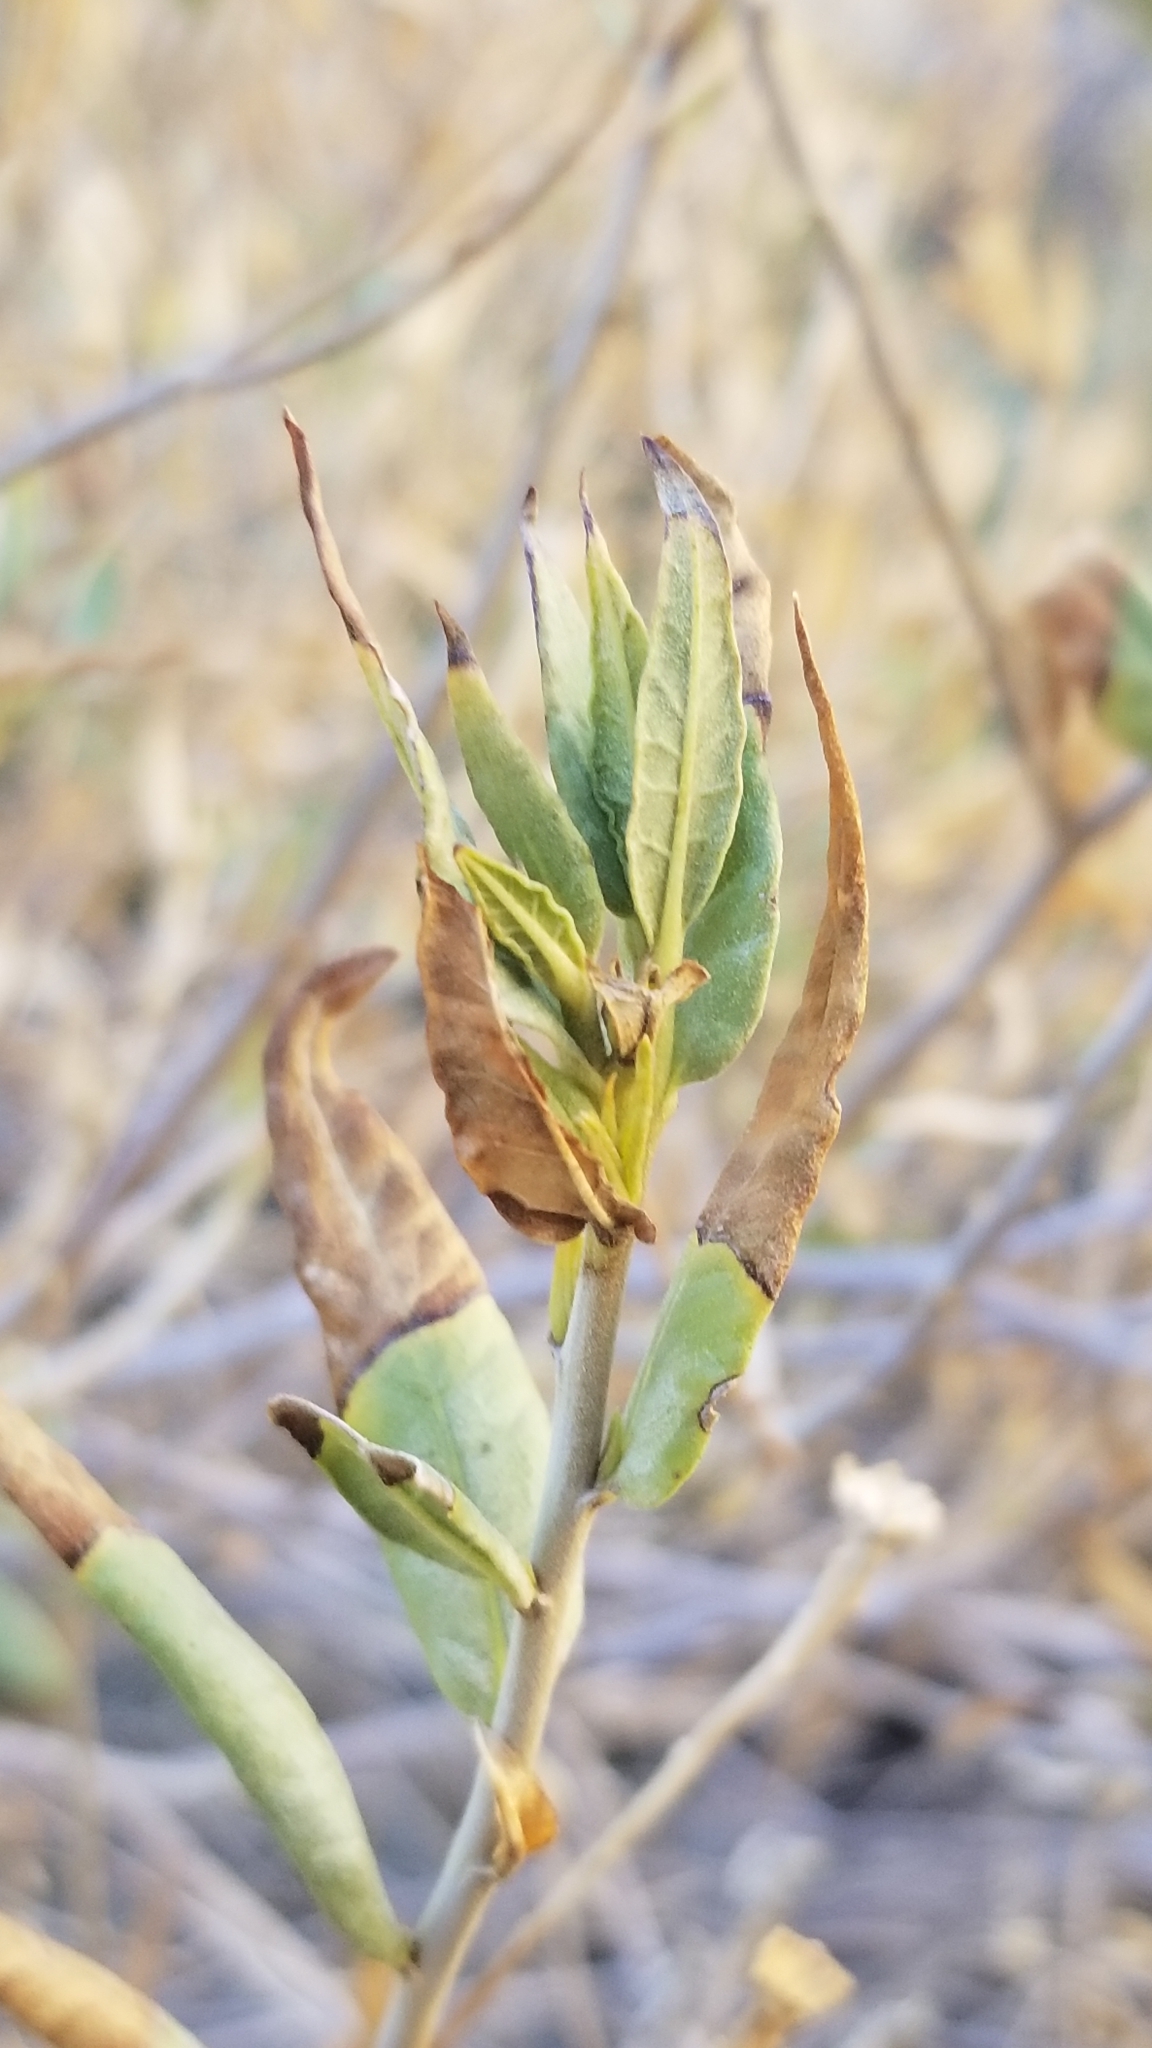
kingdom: Plantae
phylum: Tracheophyta
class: Magnoliopsida
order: Asterales
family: Asteraceae
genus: Trixis
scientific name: Trixis californica
